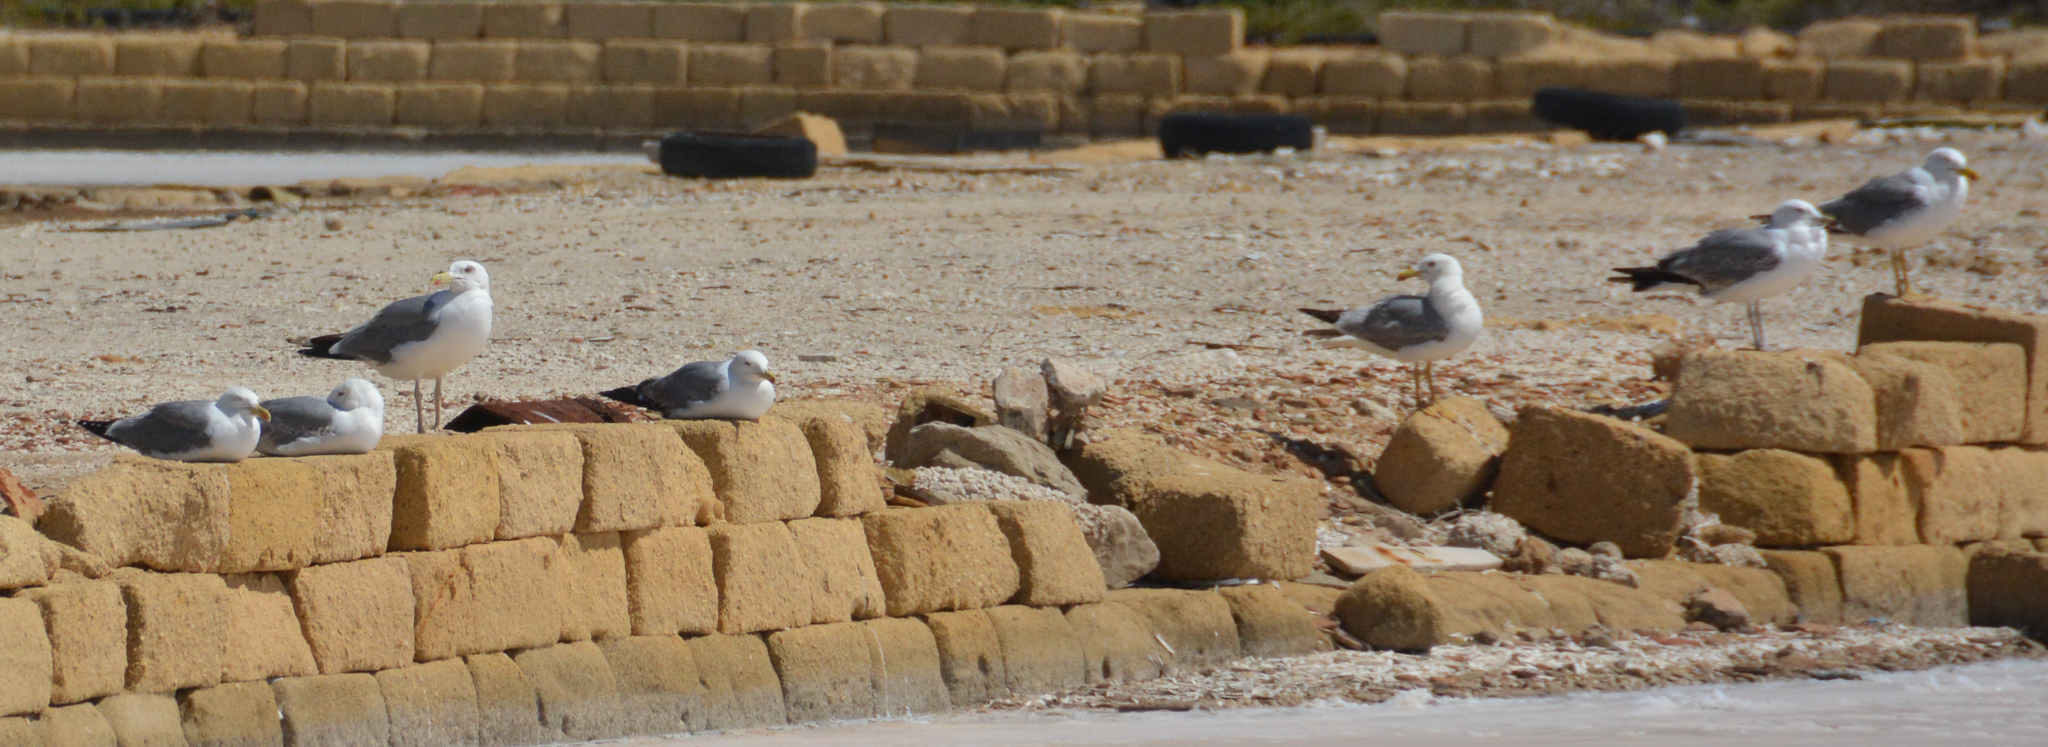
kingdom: Animalia
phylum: Chordata
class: Aves
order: Charadriiformes
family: Laridae
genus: Larus
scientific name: Larus michahellis
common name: Yellow-legged gull
